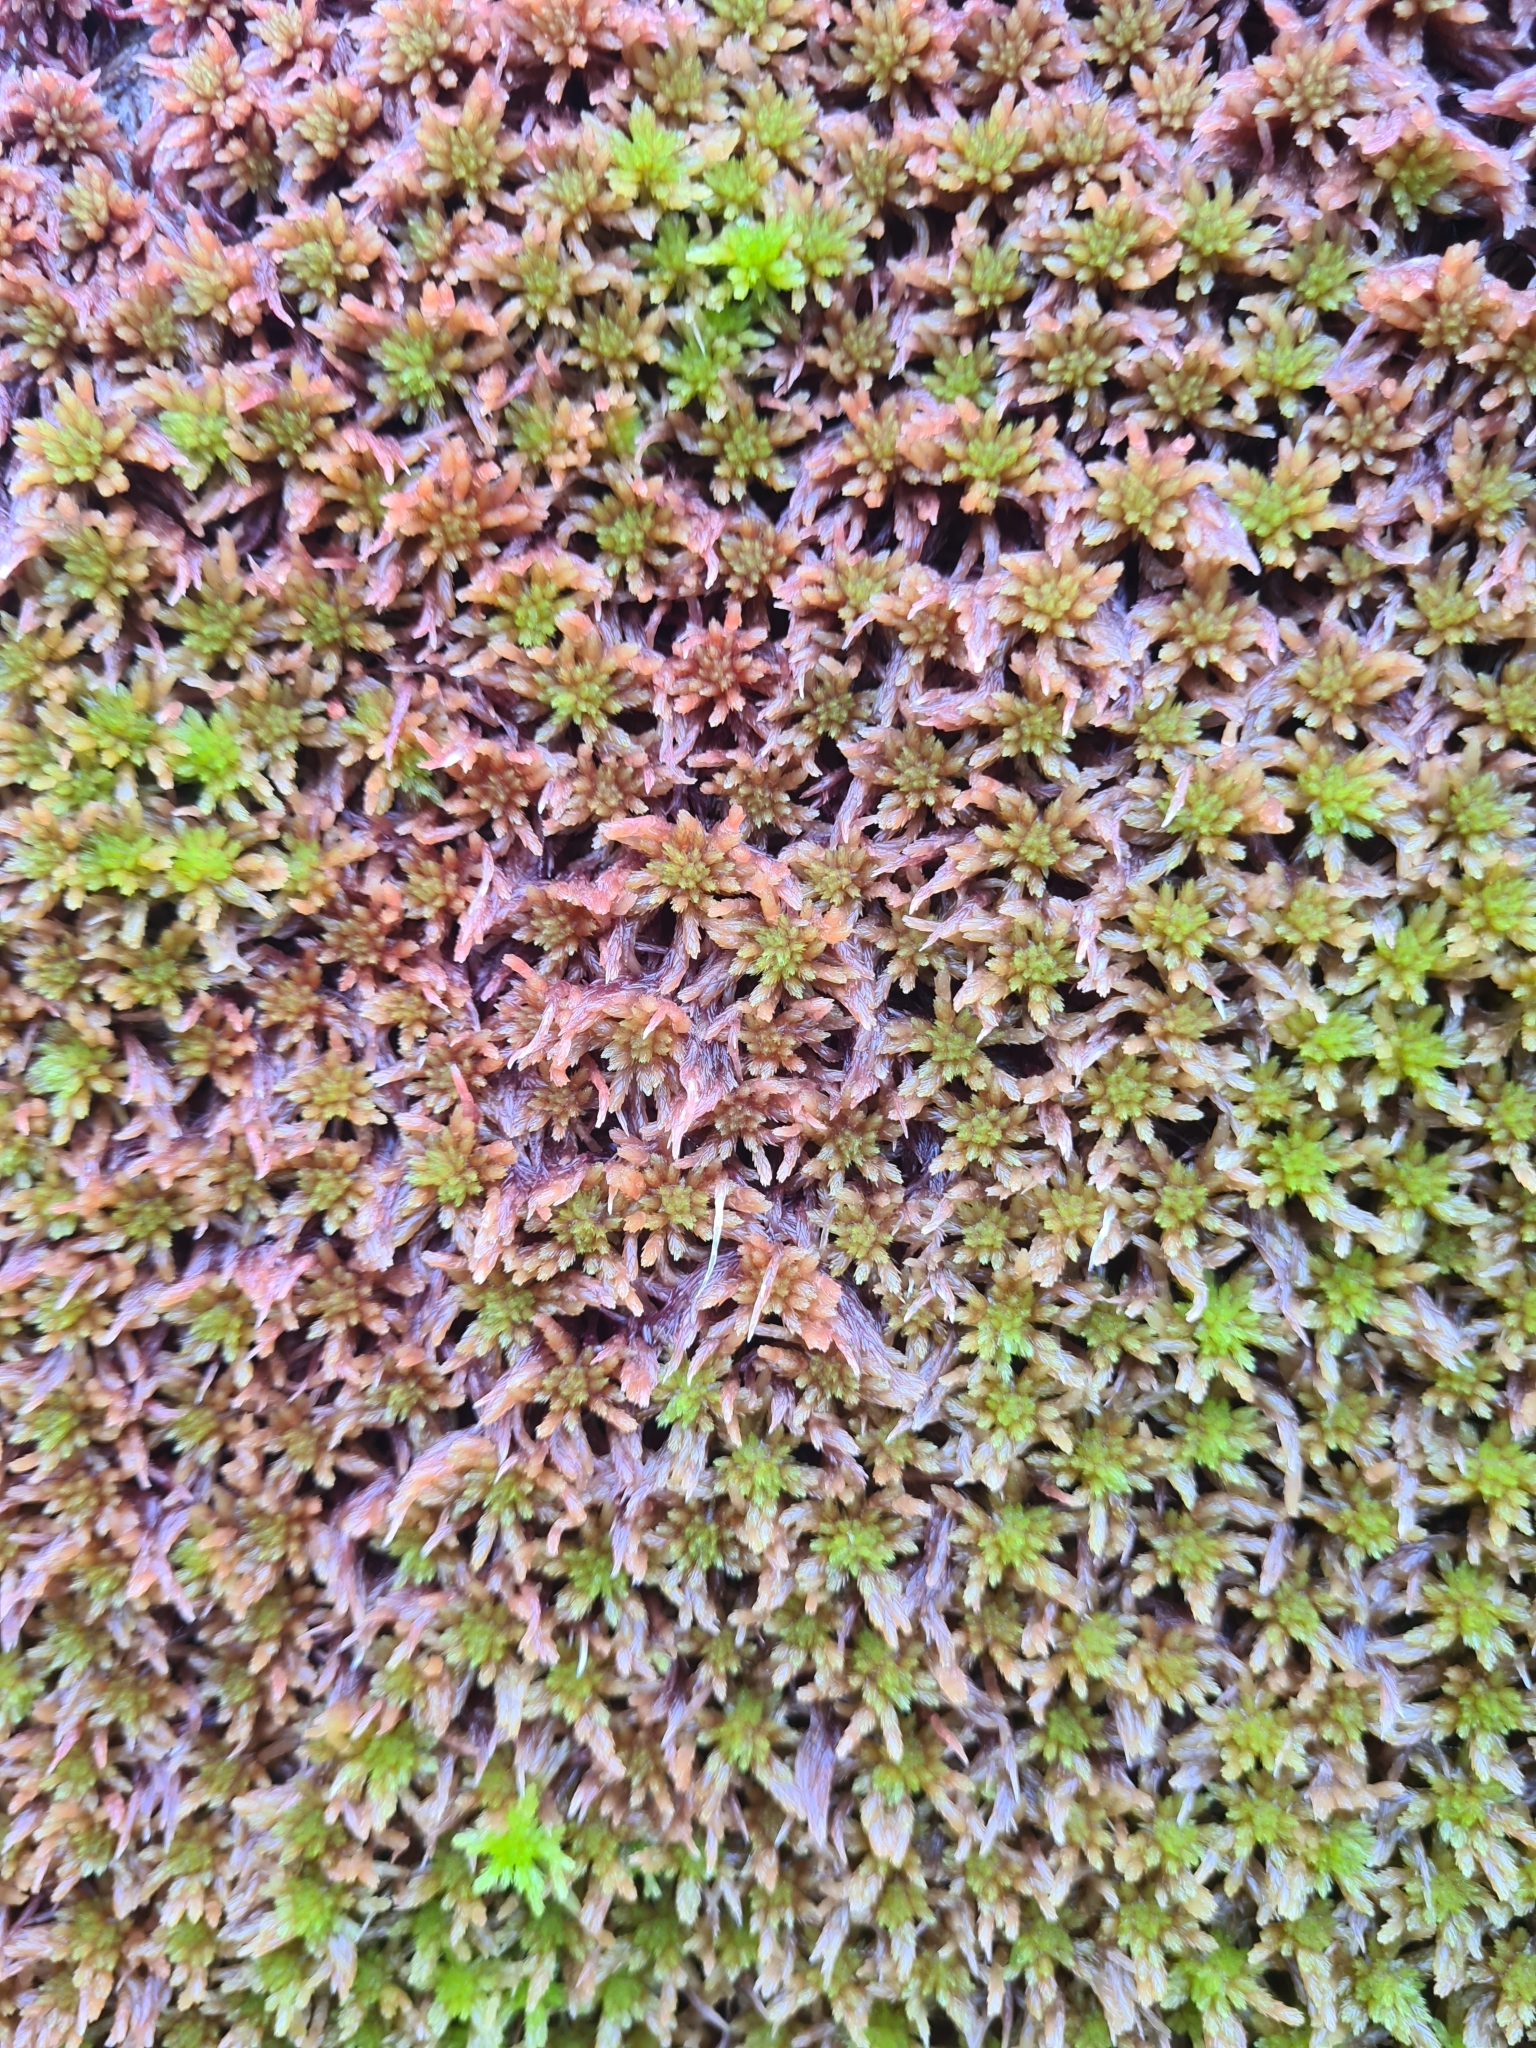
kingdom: Plantae
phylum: Bryophyta
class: Sphagnopsida
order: Sphagnales
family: Sphagnaceae
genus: Sphagnum
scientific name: Sphagnum subnitens
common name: Lustrous bog-moss
